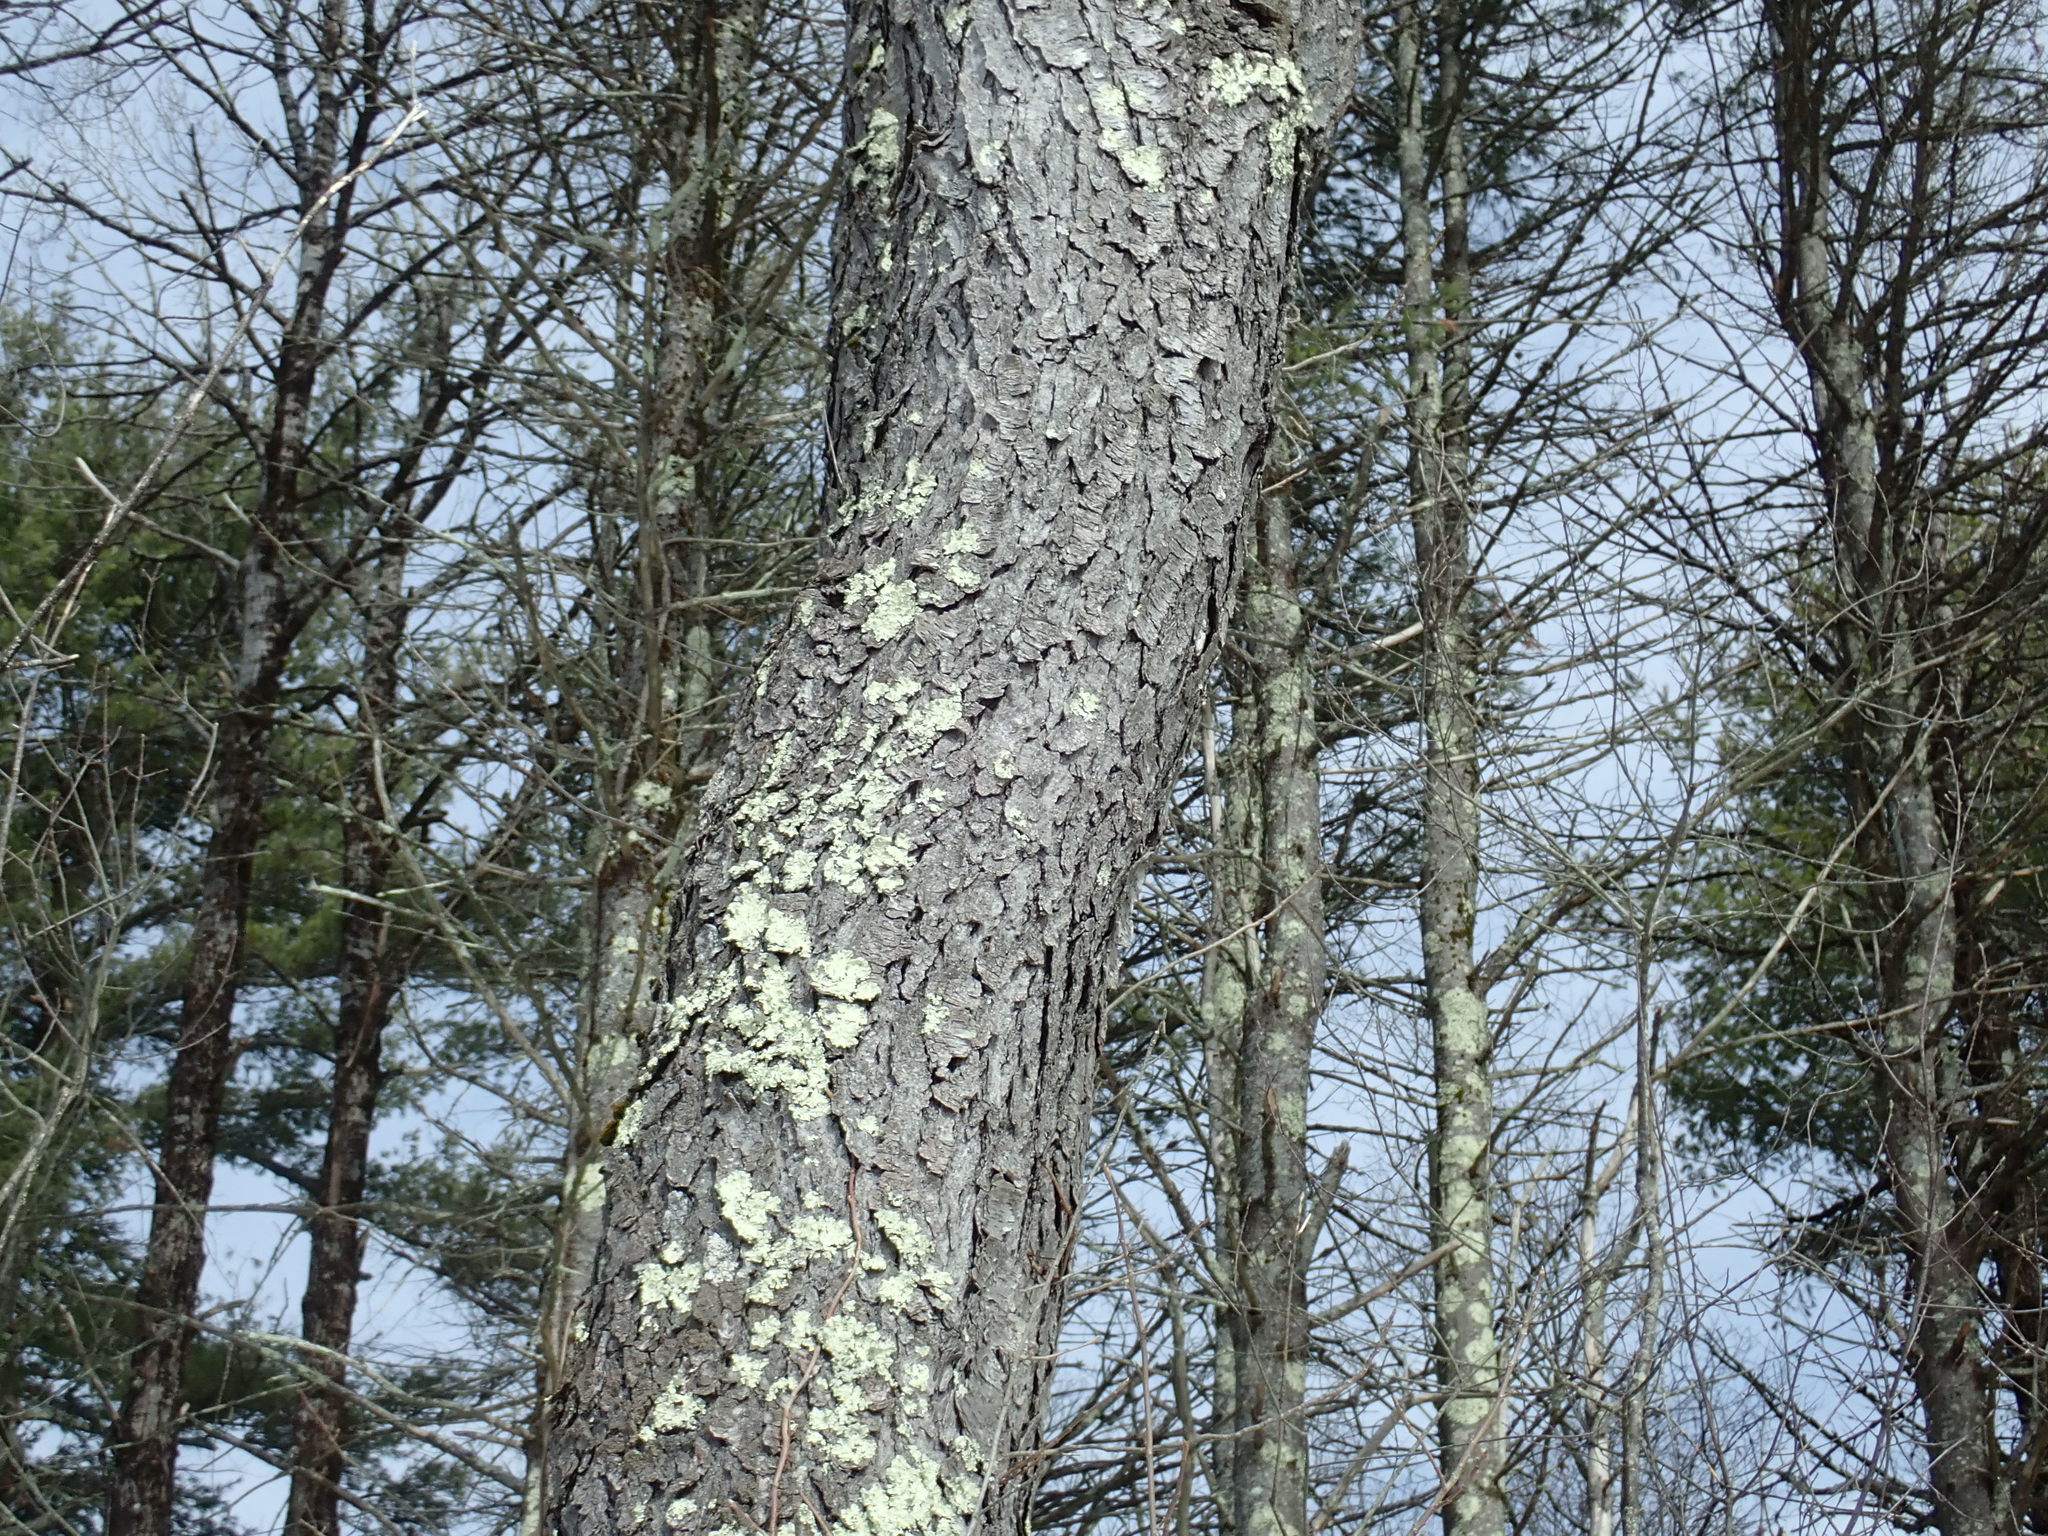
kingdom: Plantae
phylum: Tracheophyta
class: Magnoliopsida
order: Rosales
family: Rosaceae
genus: Prunus
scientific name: Prunus serotina
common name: Black cherry
